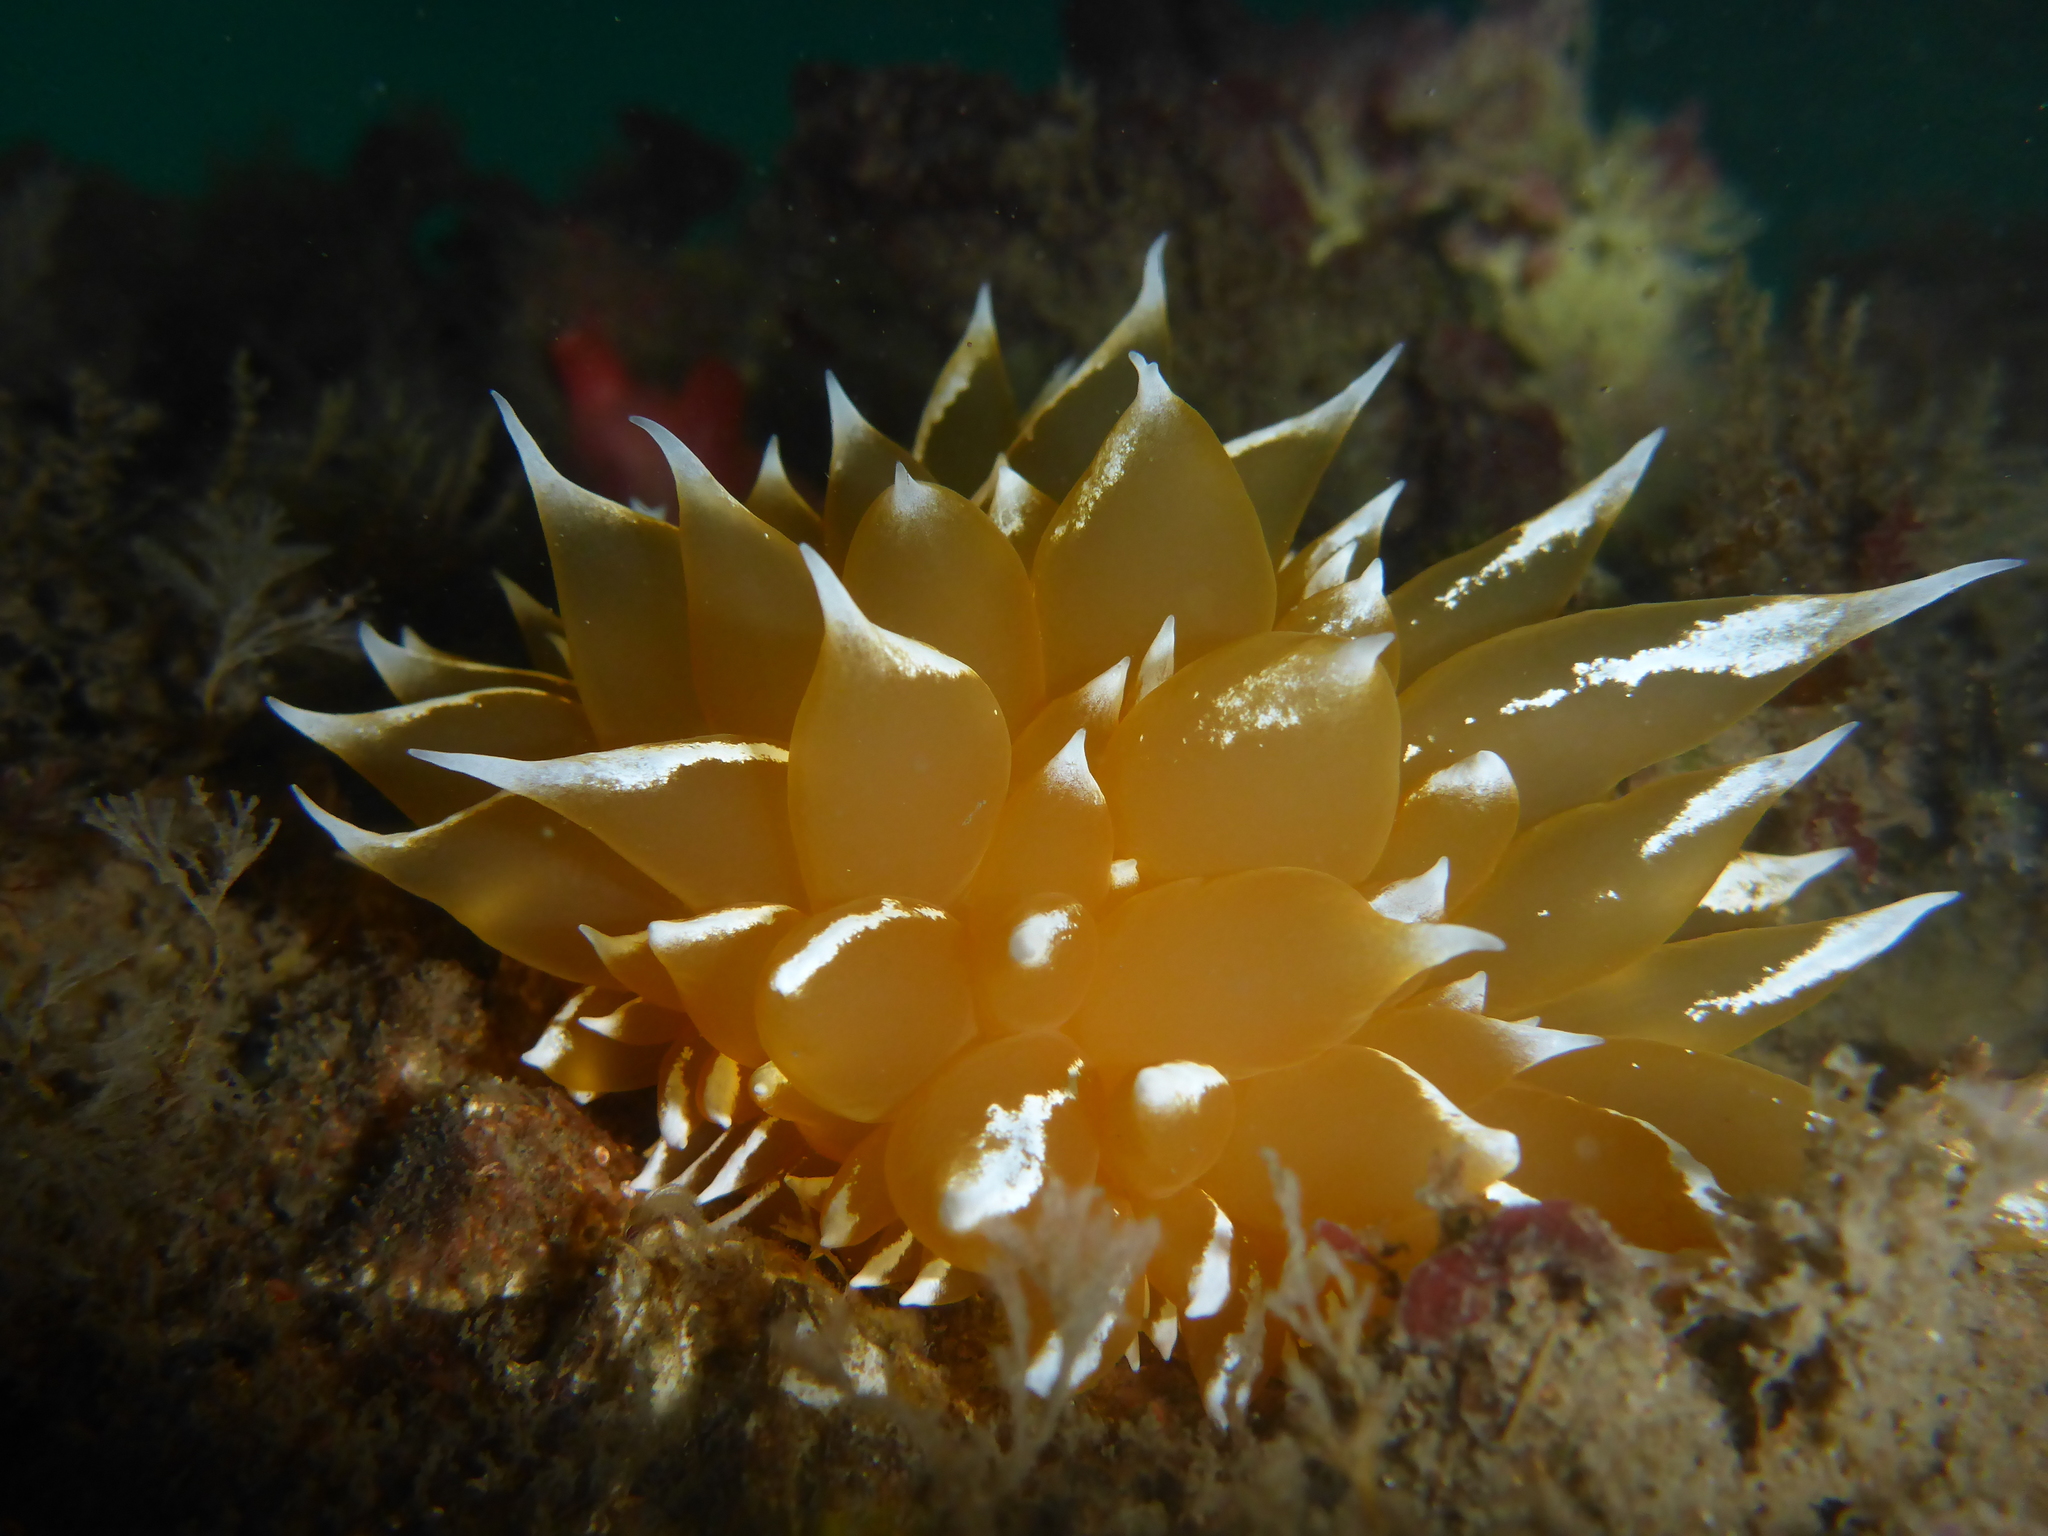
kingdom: Animalia
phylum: Mollusca
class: Gastropoda
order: Nudibranchia
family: Dironidae
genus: Dirona
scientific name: Dirona pellucida
